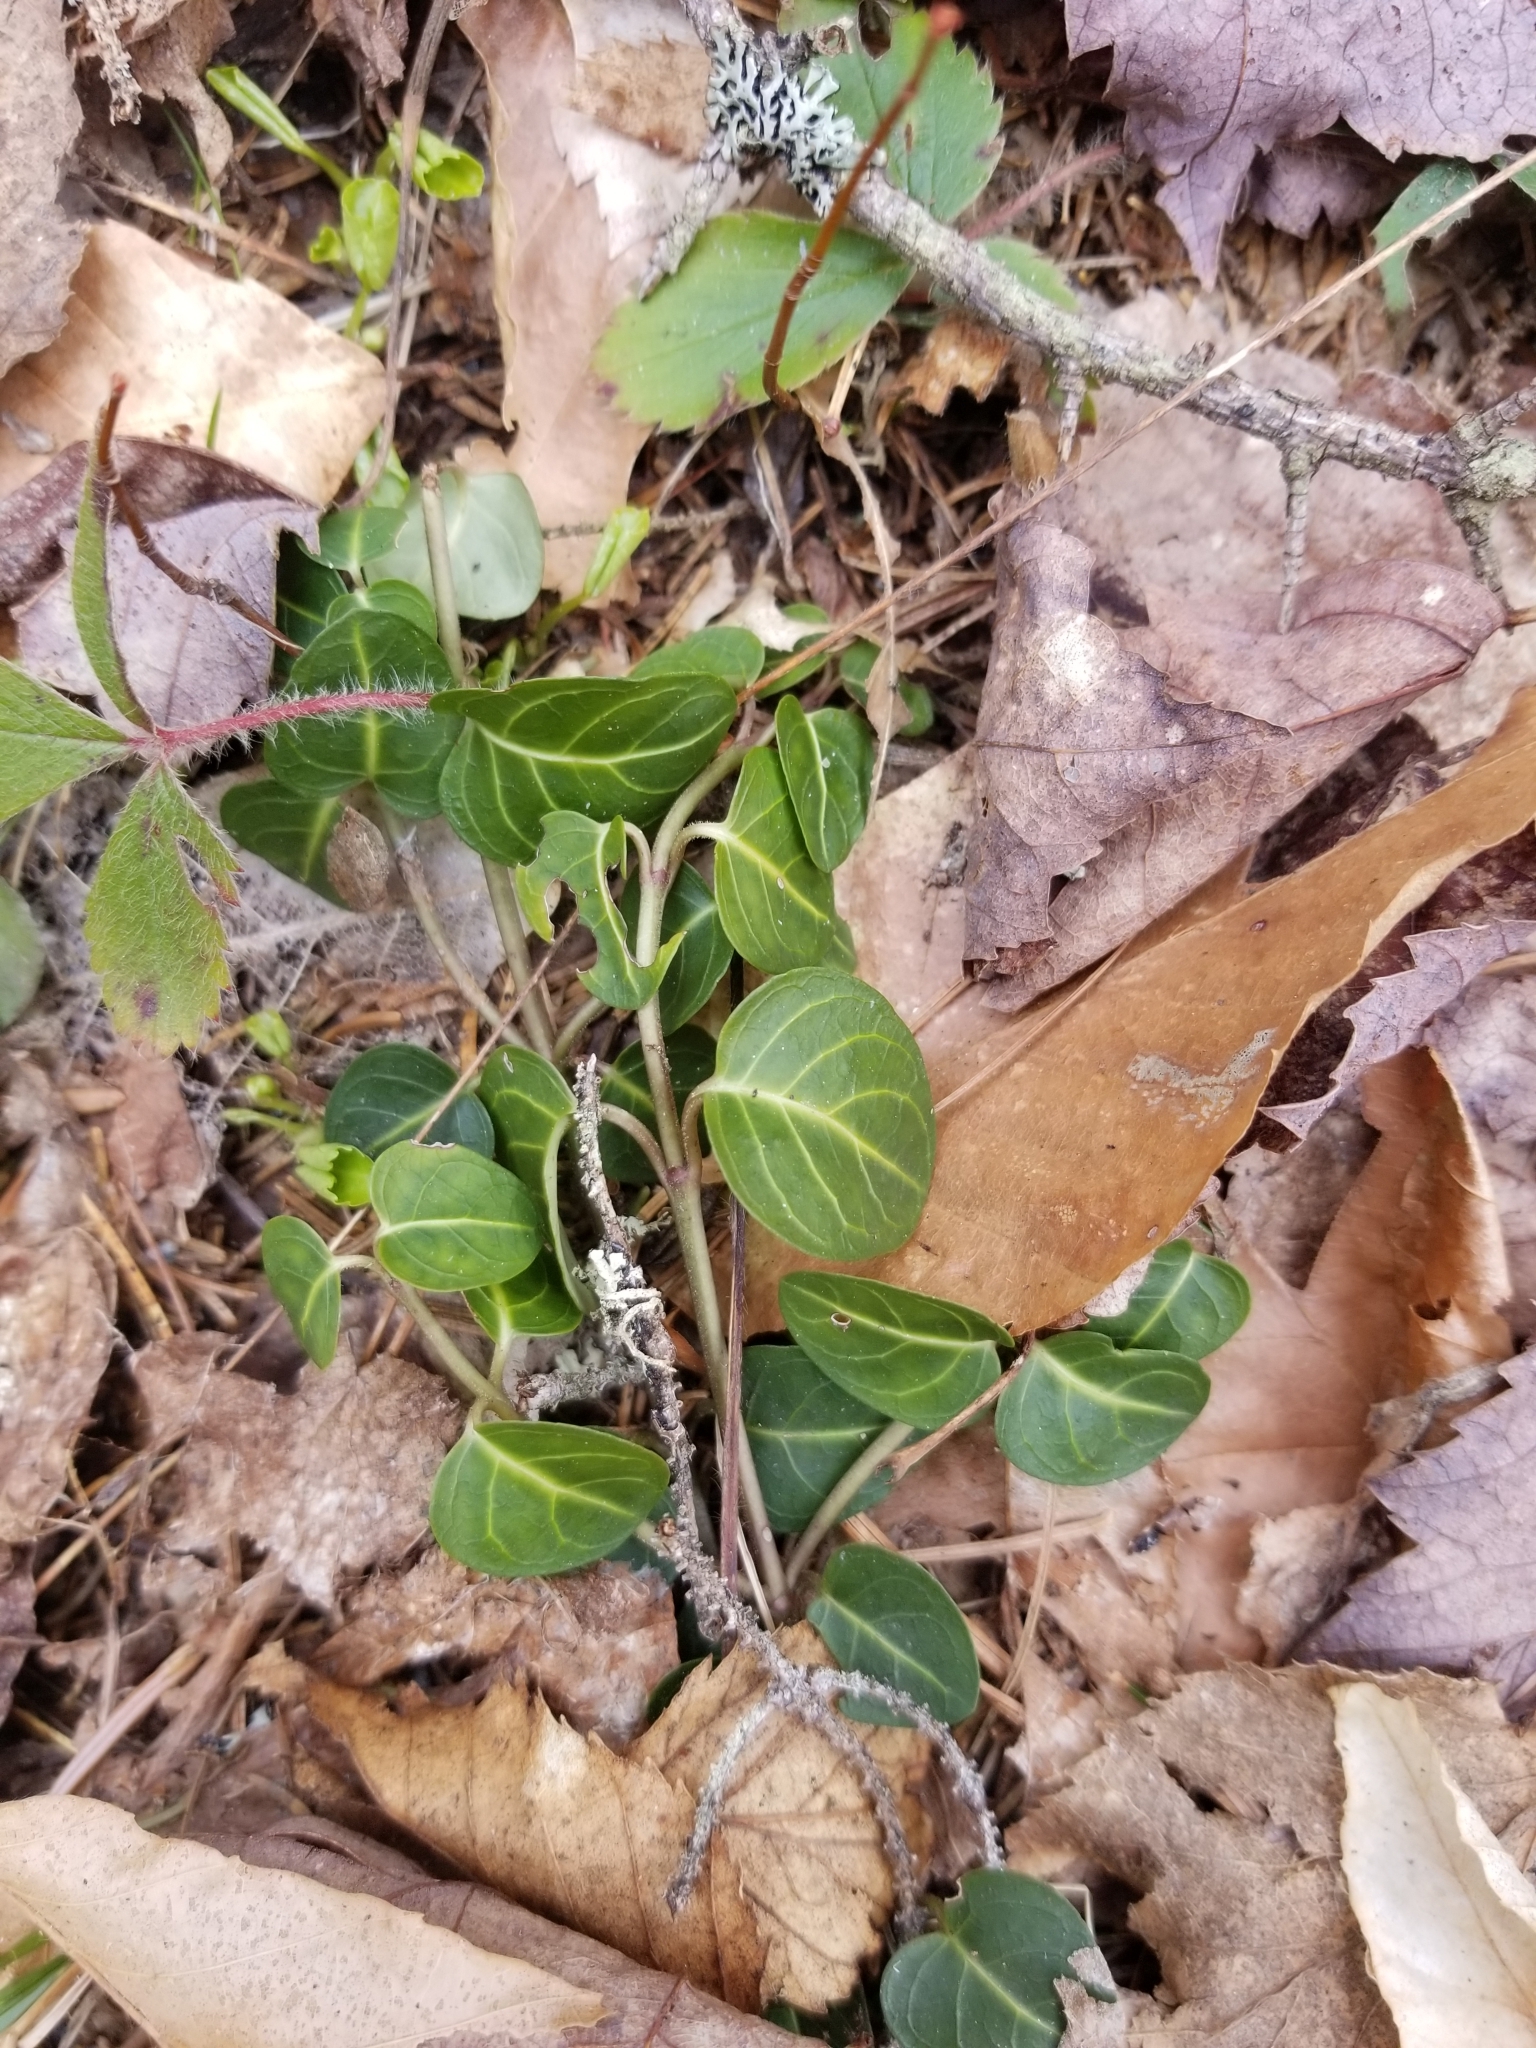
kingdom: Plantae
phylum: Tracheophyta
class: Magnoliopsida
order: Gentianales
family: Rubiaceae
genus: Mitchella
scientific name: Mitchella repens
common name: Partridge-berry
